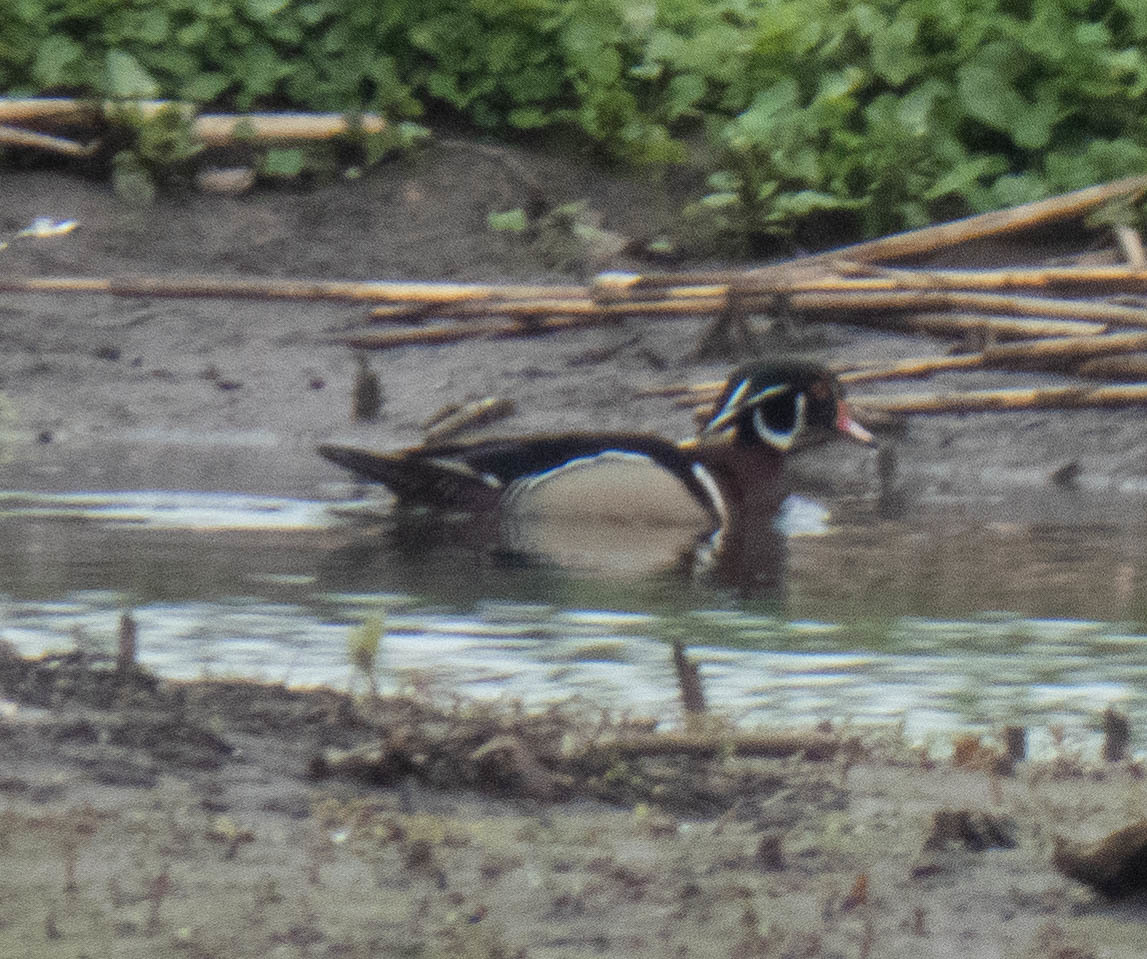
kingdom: Animalia
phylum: Chordata
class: Aves
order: Anseriformes
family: Anatidae
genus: Aix
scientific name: Aix sponsa
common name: Wood duck
